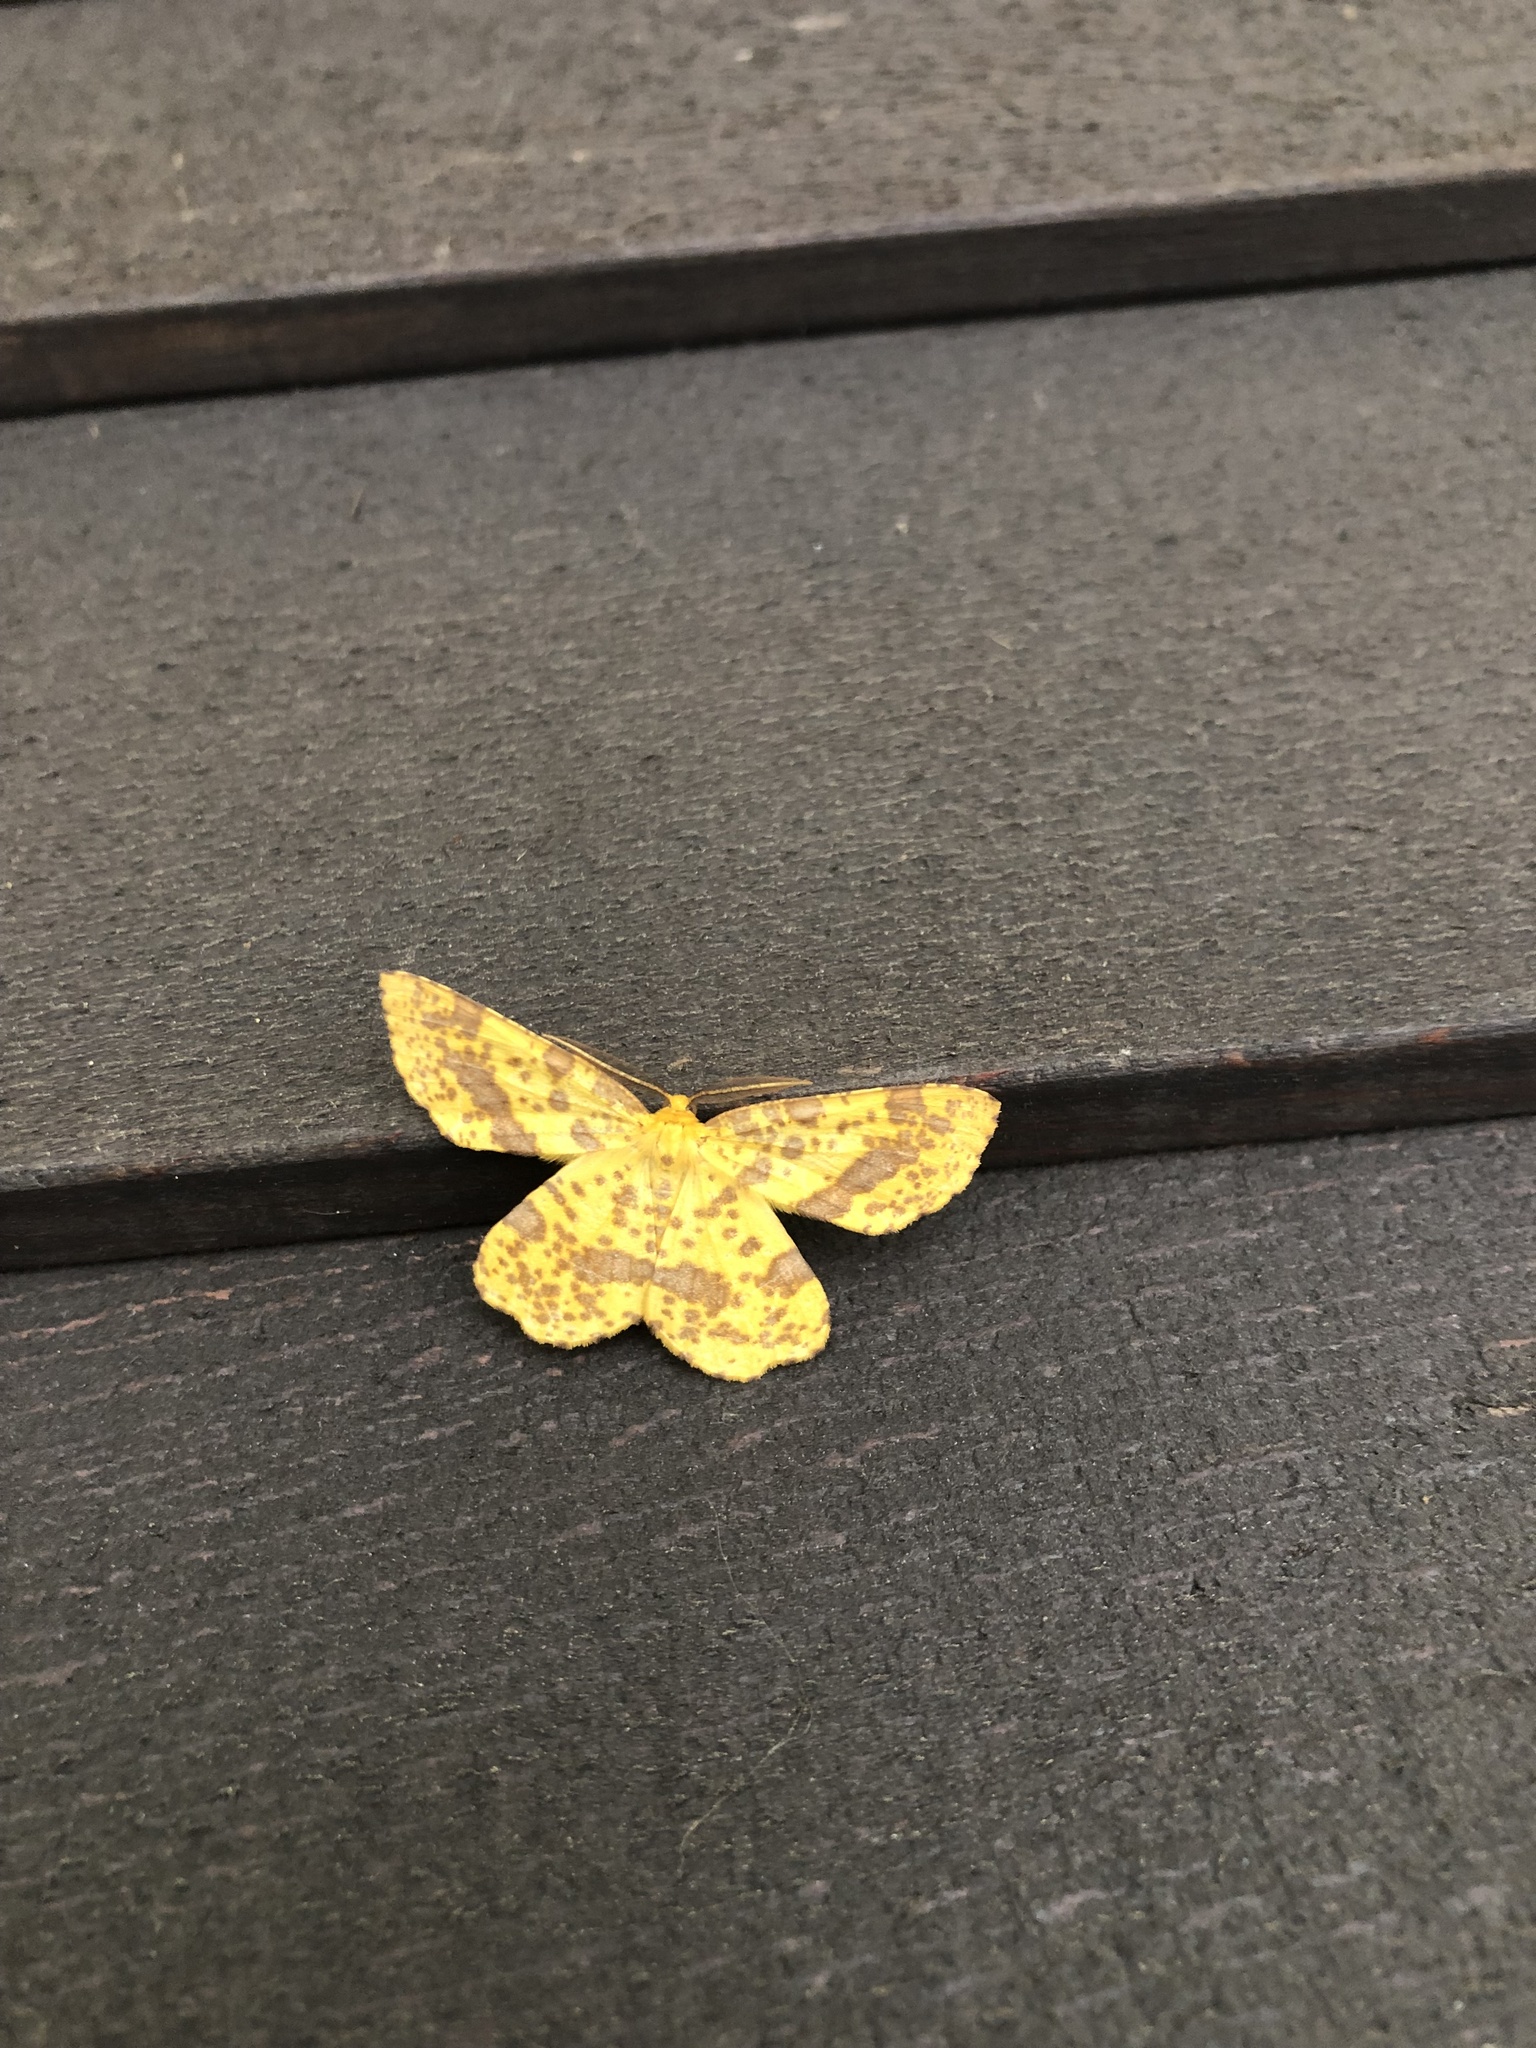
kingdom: Animalia
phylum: Arthropoda
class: Insecta
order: Lepidoptera
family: Geometridae
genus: Xanthotype
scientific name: Xanthotype
